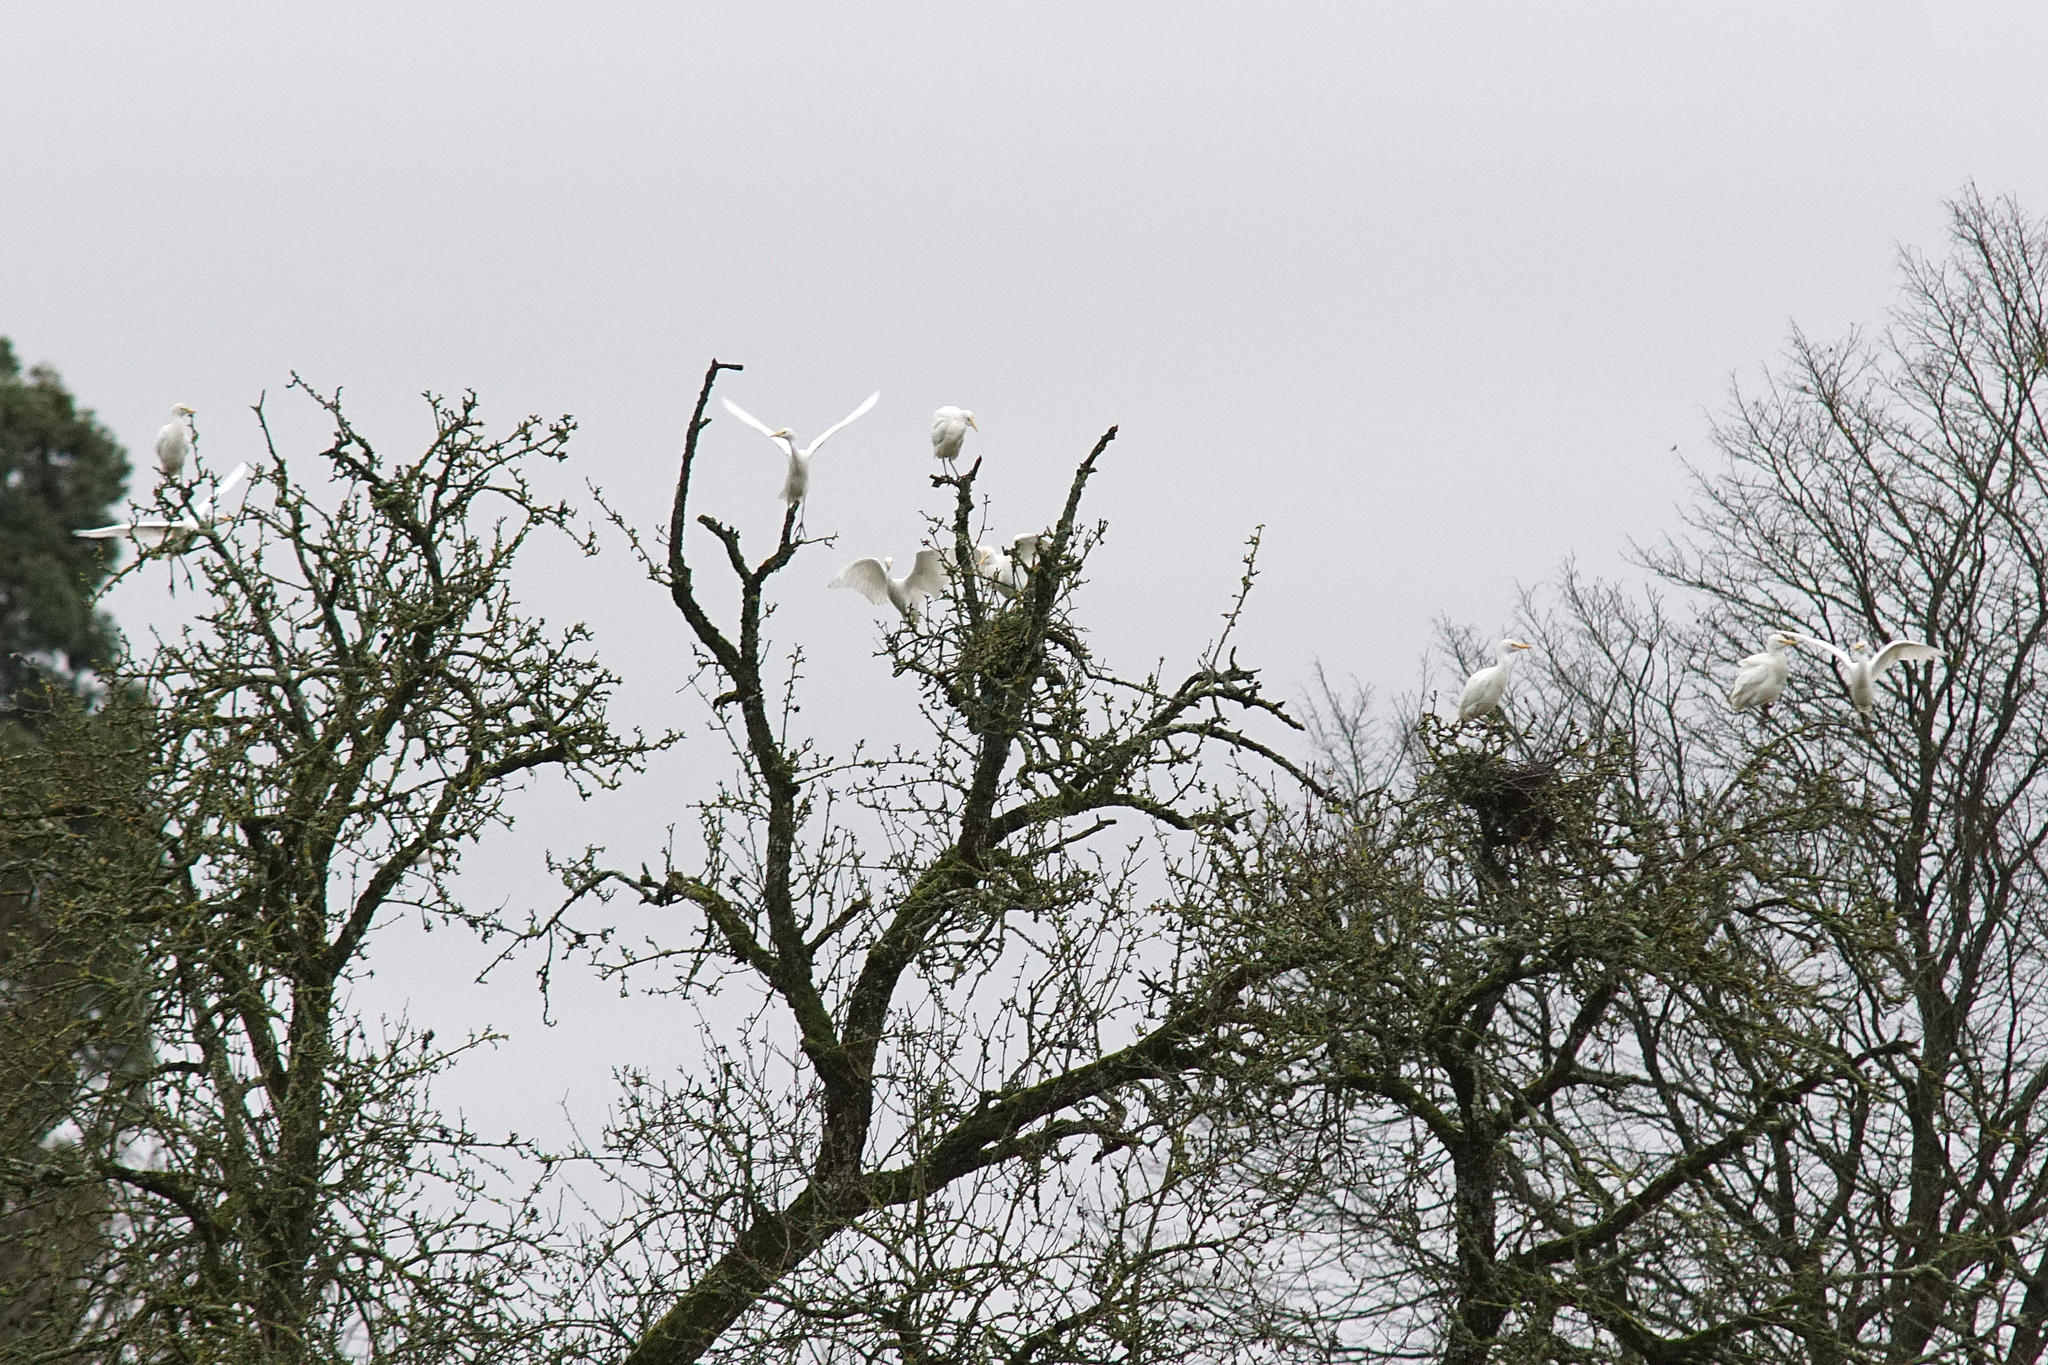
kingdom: Animalia
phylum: Chordata
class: Aves
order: Pelecaniformes
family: Ardeidae
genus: Bubulcus
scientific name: Bubulcus ibis
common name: Cattle egret
